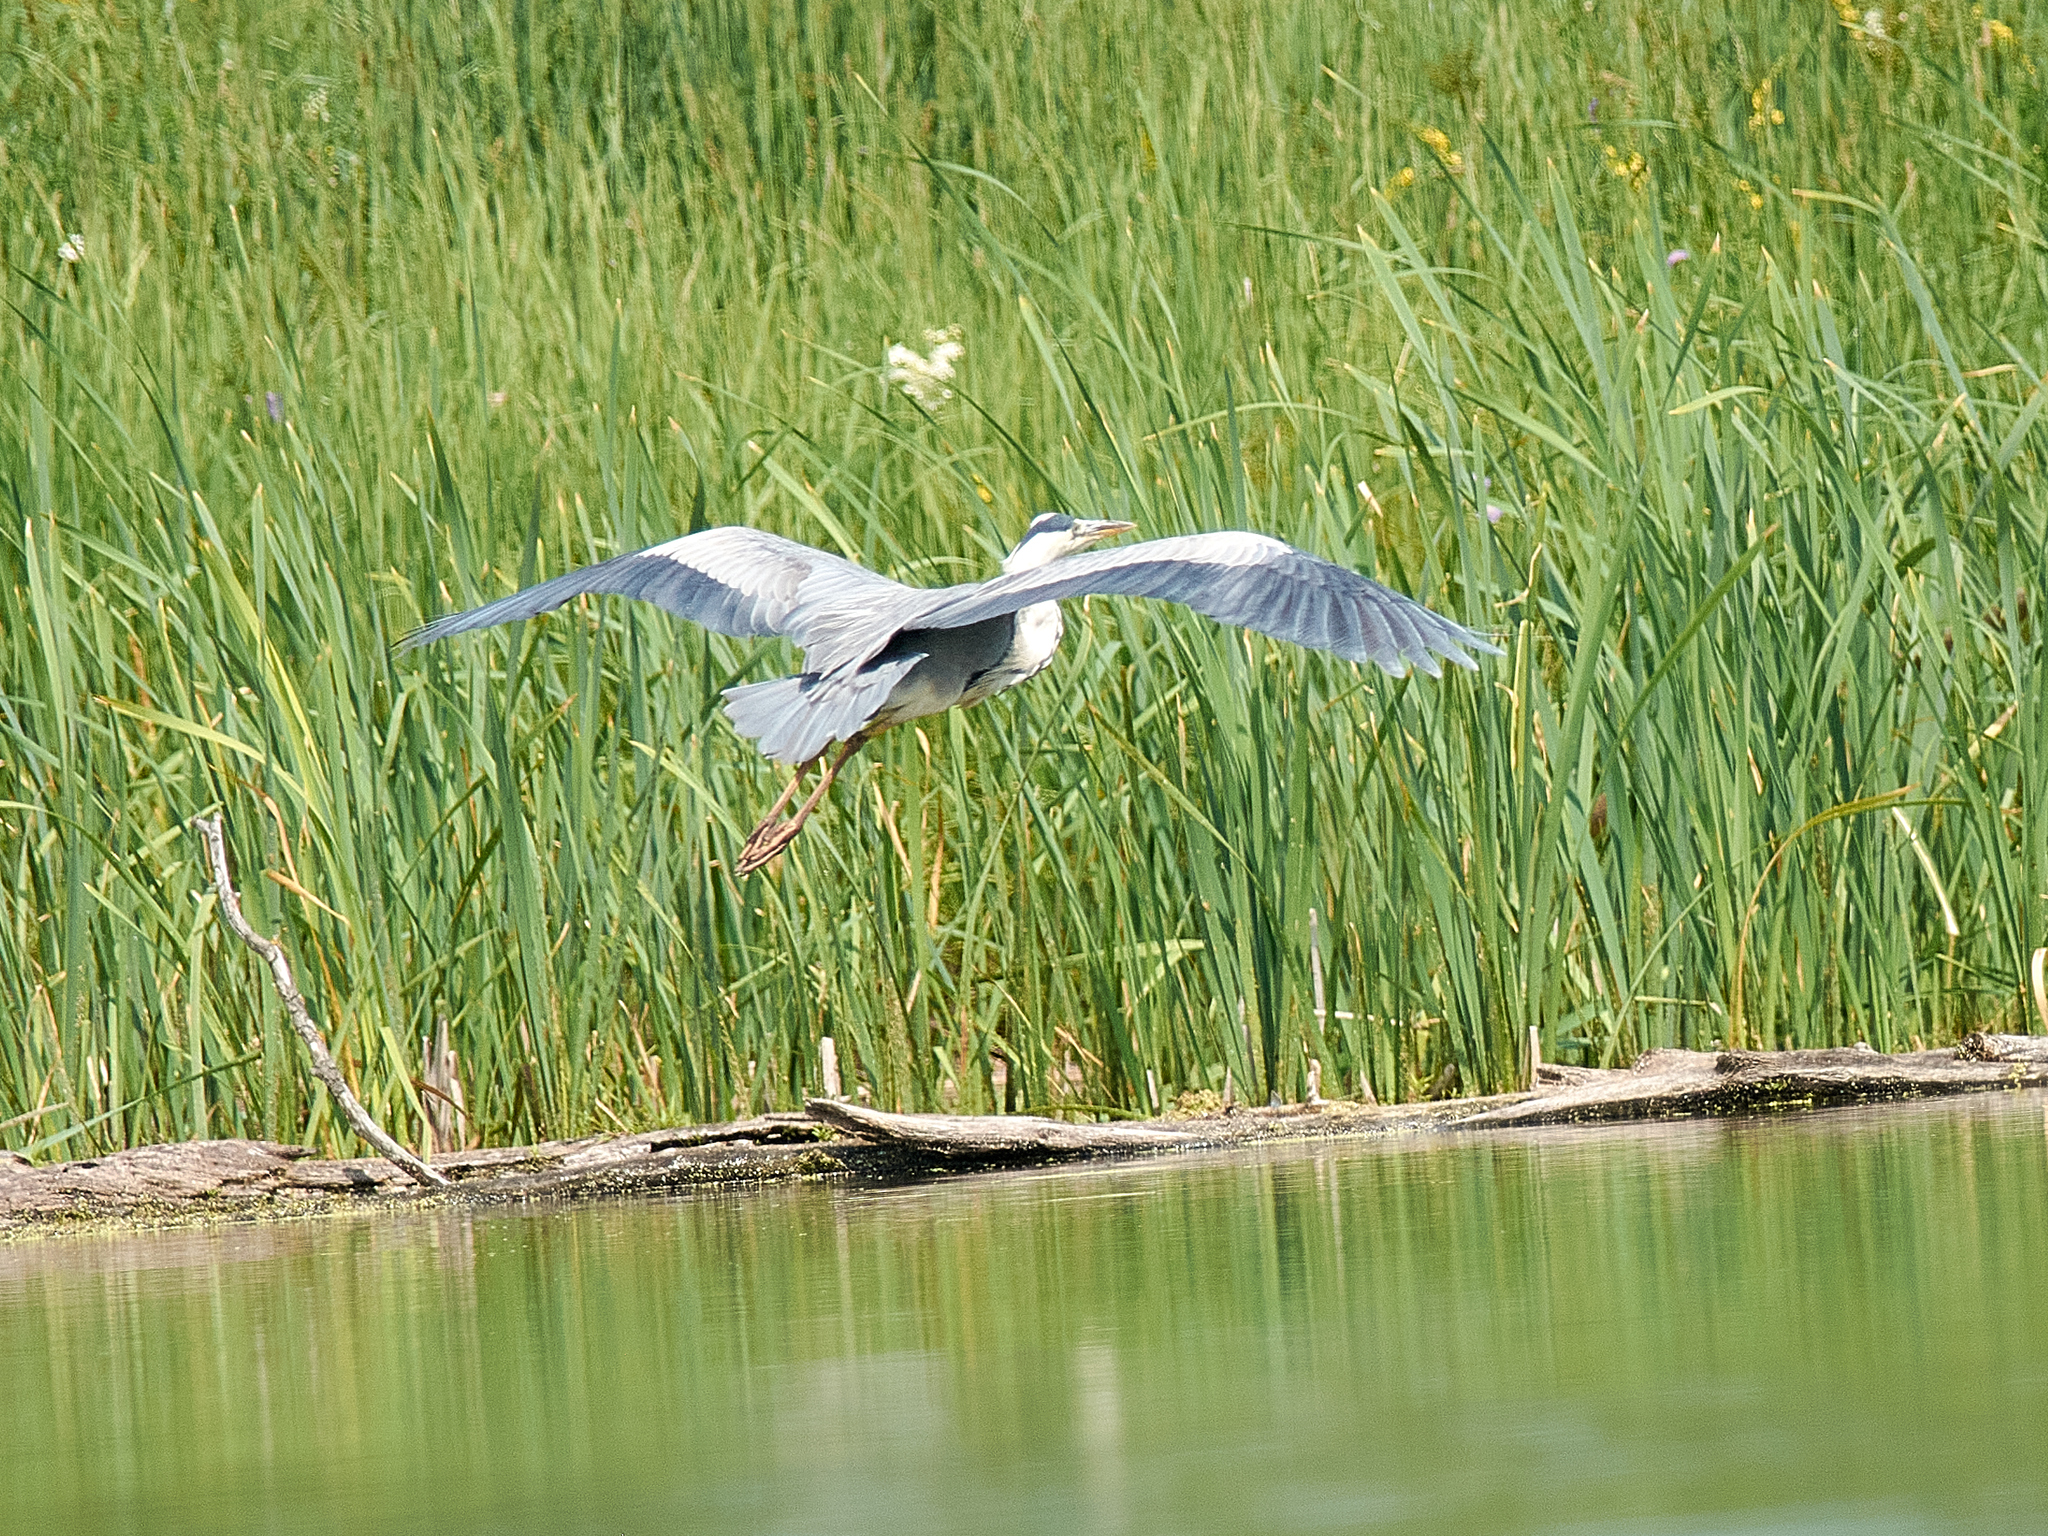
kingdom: Animalia
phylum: Chordata
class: Aves
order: Pelecaniformes
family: Ardeidae
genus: Ardea
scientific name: Ardea cinerea
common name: Grey heron
